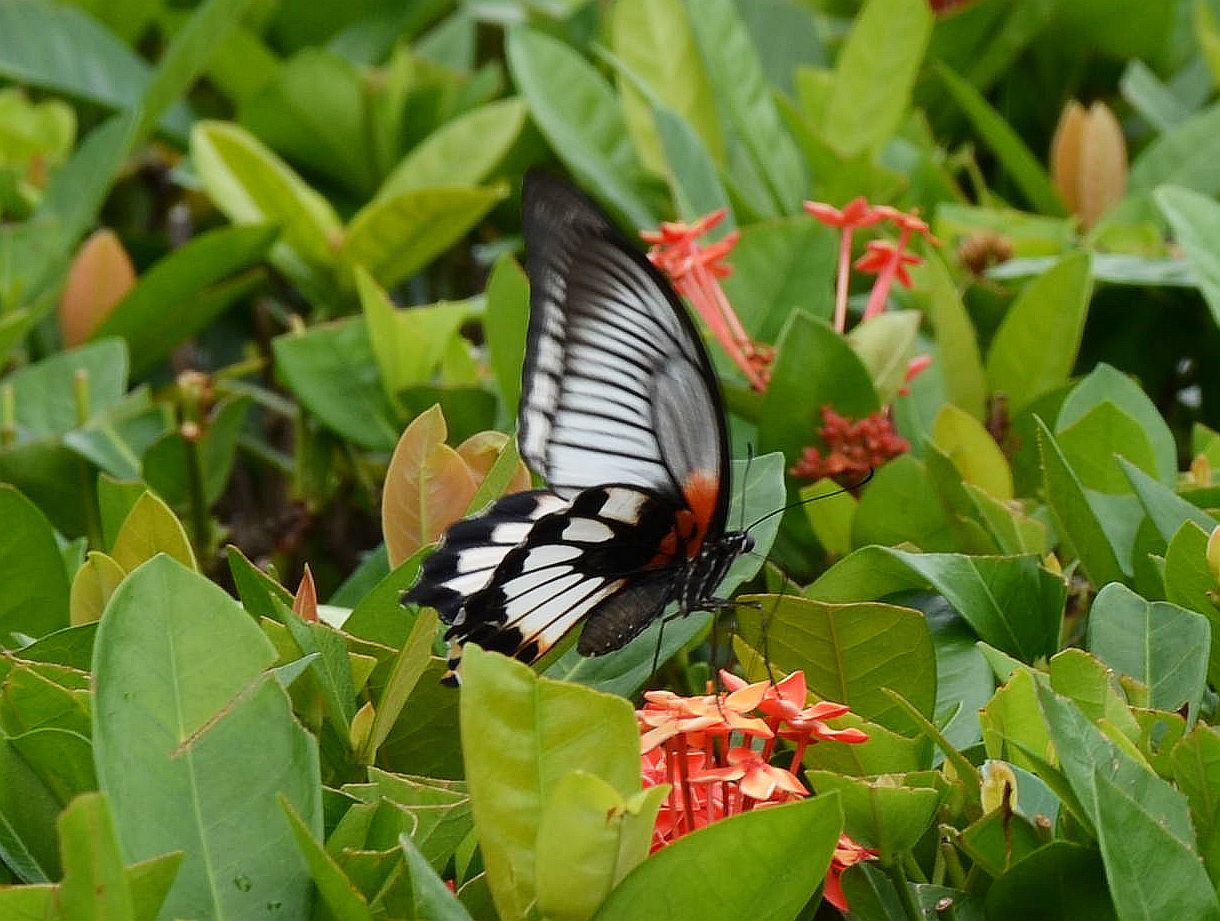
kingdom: Animalia
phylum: Arthropoda
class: Insecta
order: Lepidoptera
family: Papilionidae
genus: Papilio
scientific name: Papilio memnon
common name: Great mormon
